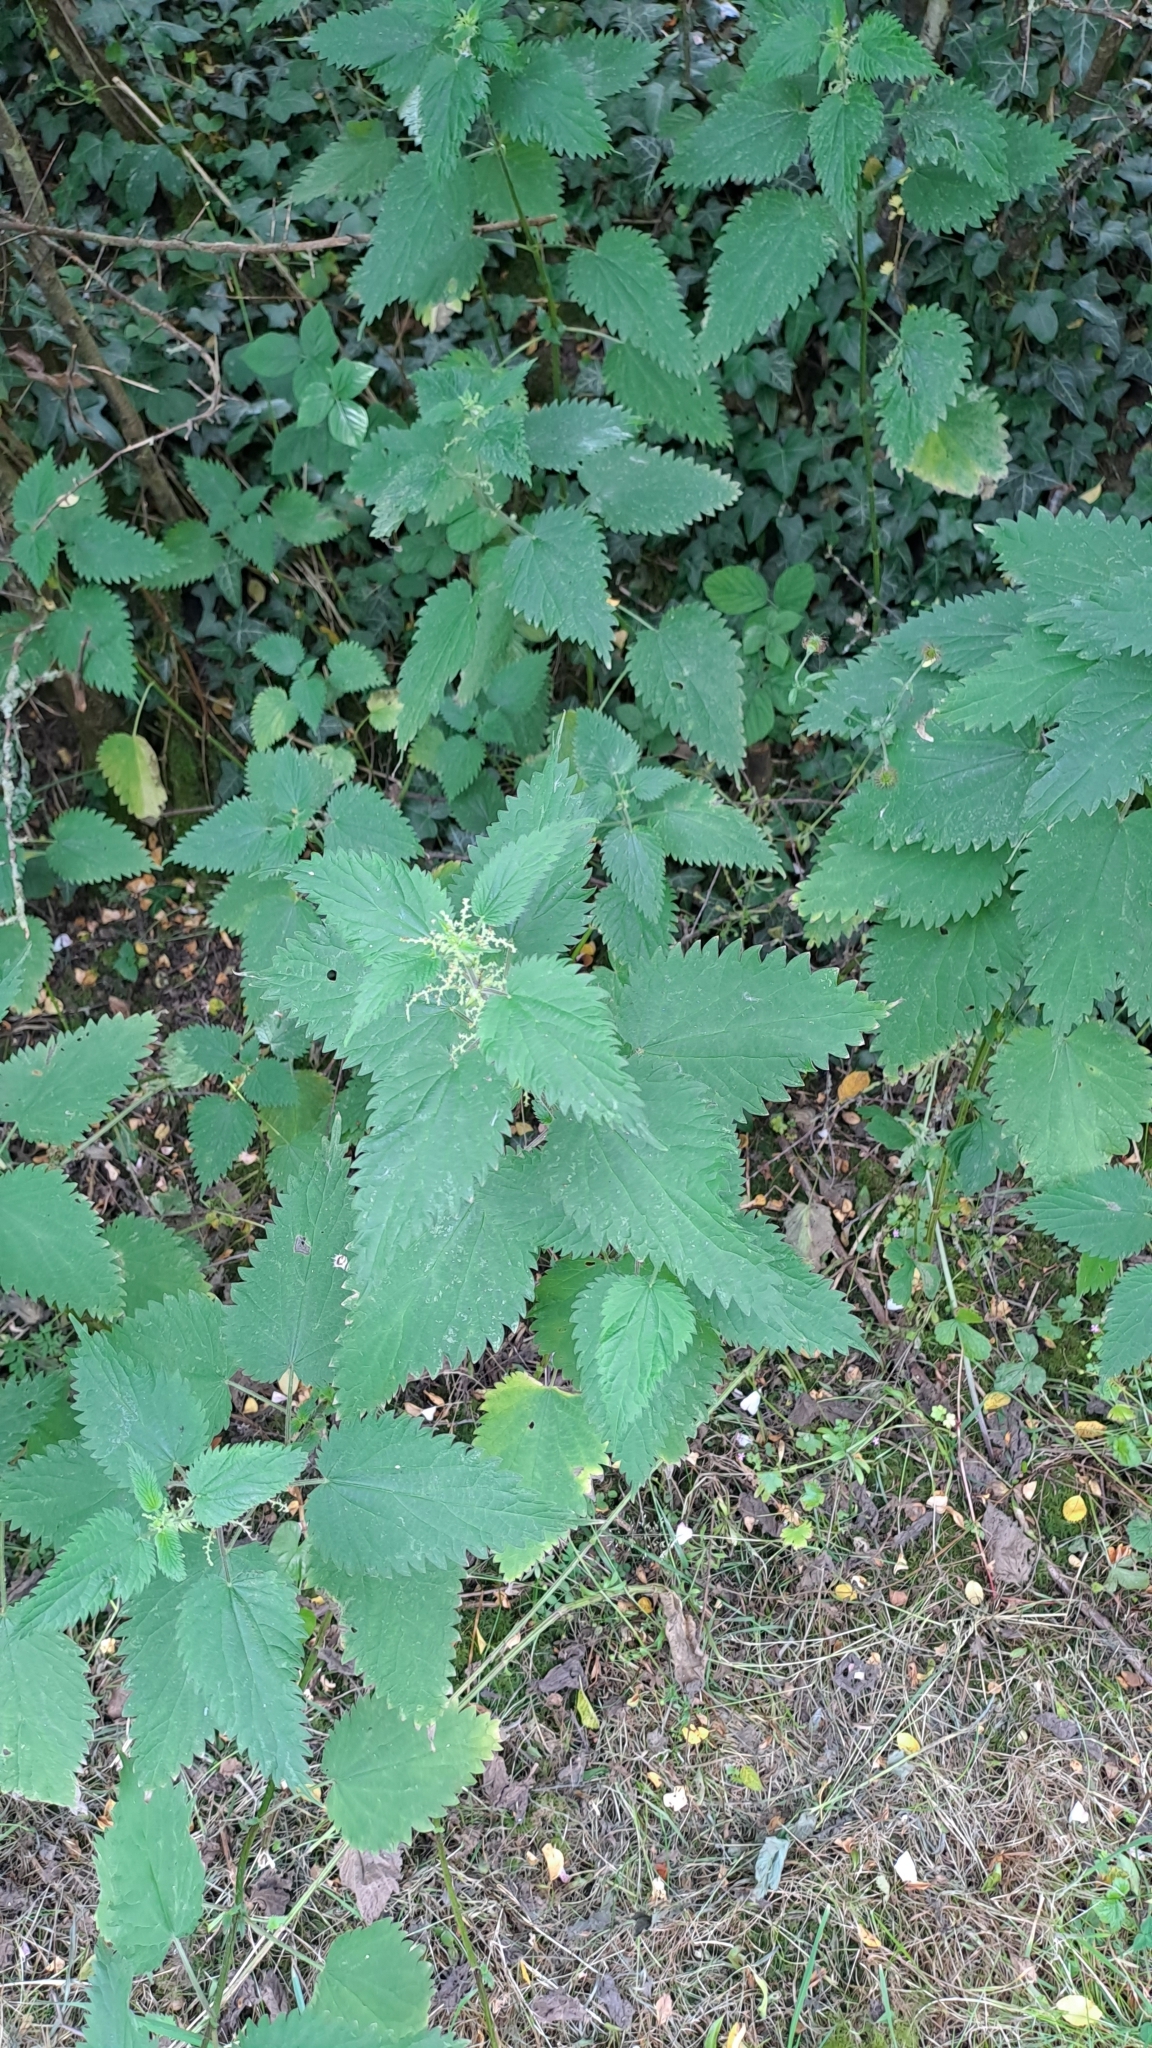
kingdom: Plantae
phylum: Tracheophyta
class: Magnoliopsida
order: Rosales
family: Urticaceae
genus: Urtica
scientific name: Urtica dioica
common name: Common nettle
